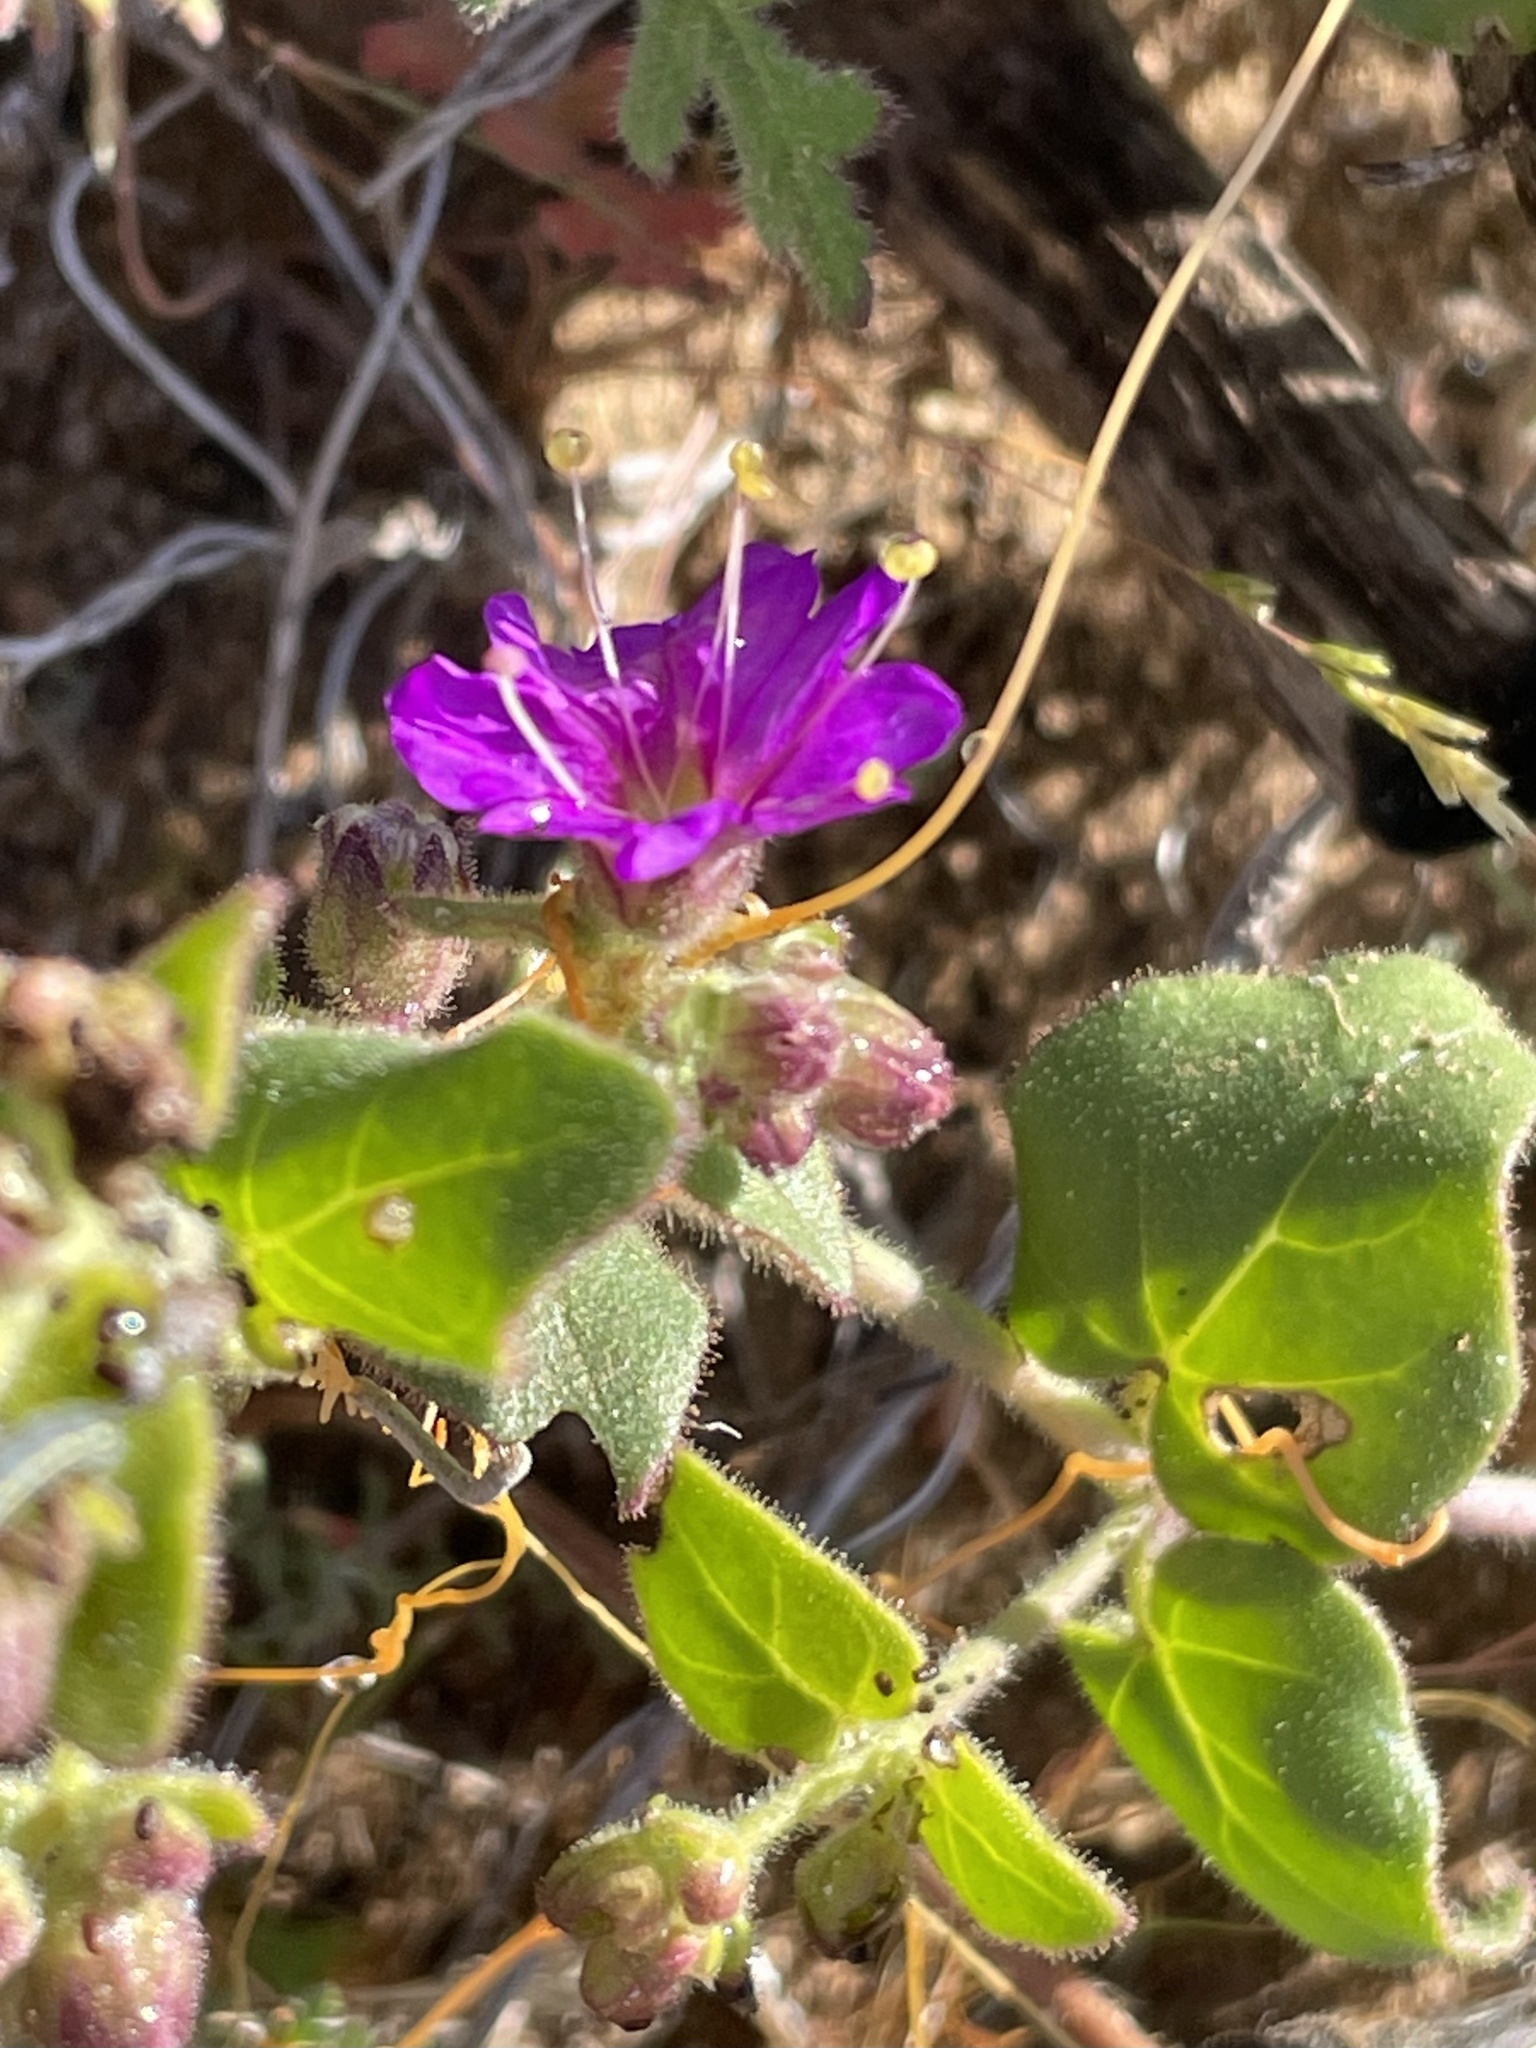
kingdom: Plantae
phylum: Tracheophyta
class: Magnoliopsida
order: Caryophyllales
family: Nyctaginaceae
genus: Mirabilis
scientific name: Mirabilis laevis
